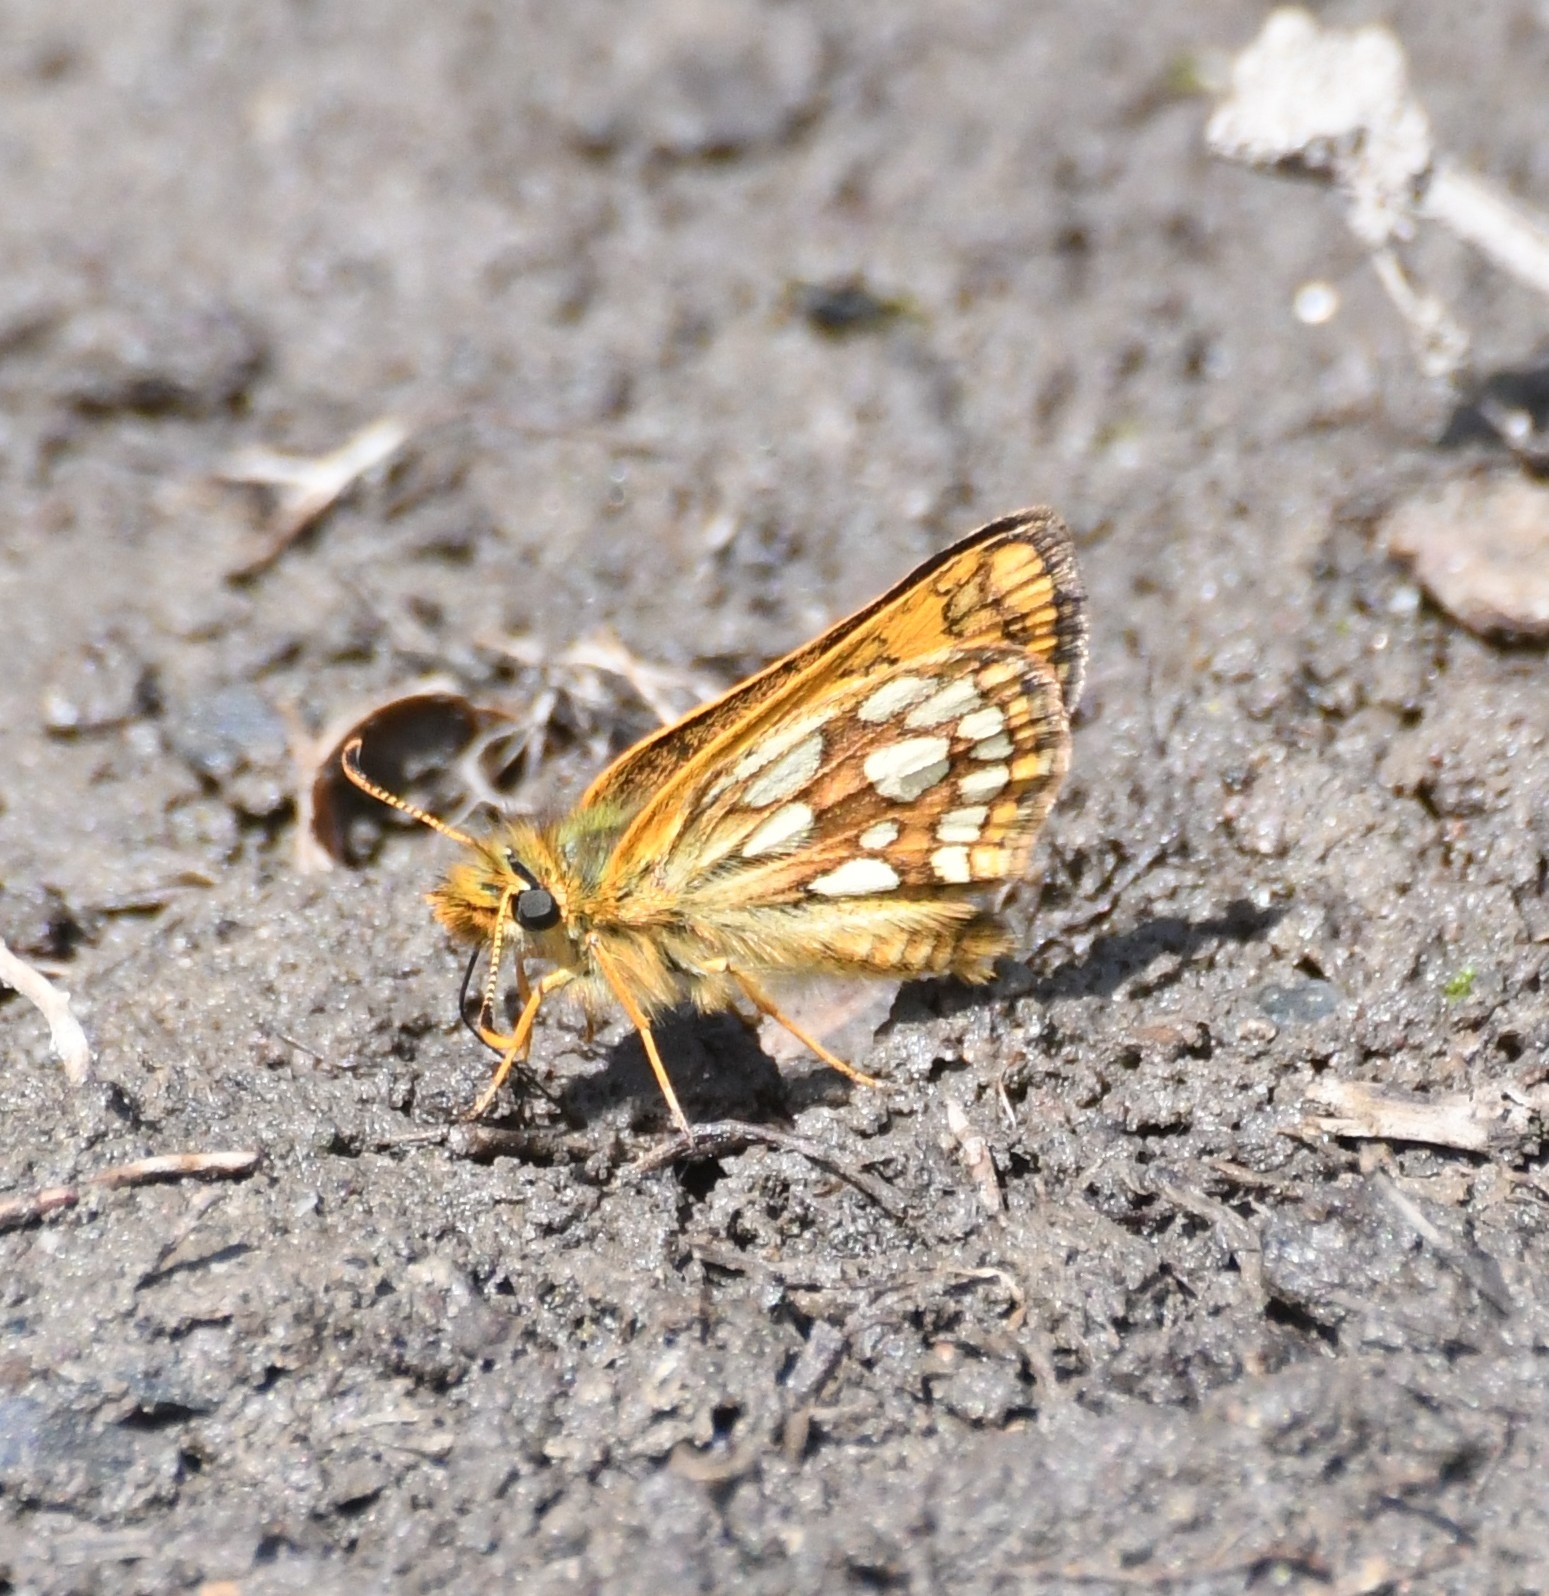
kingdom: Animalia
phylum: Arthropoda
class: Insecta
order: Lepidoptera
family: Hesperiidae
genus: Carterocephalus
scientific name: Carterocephalus skada
